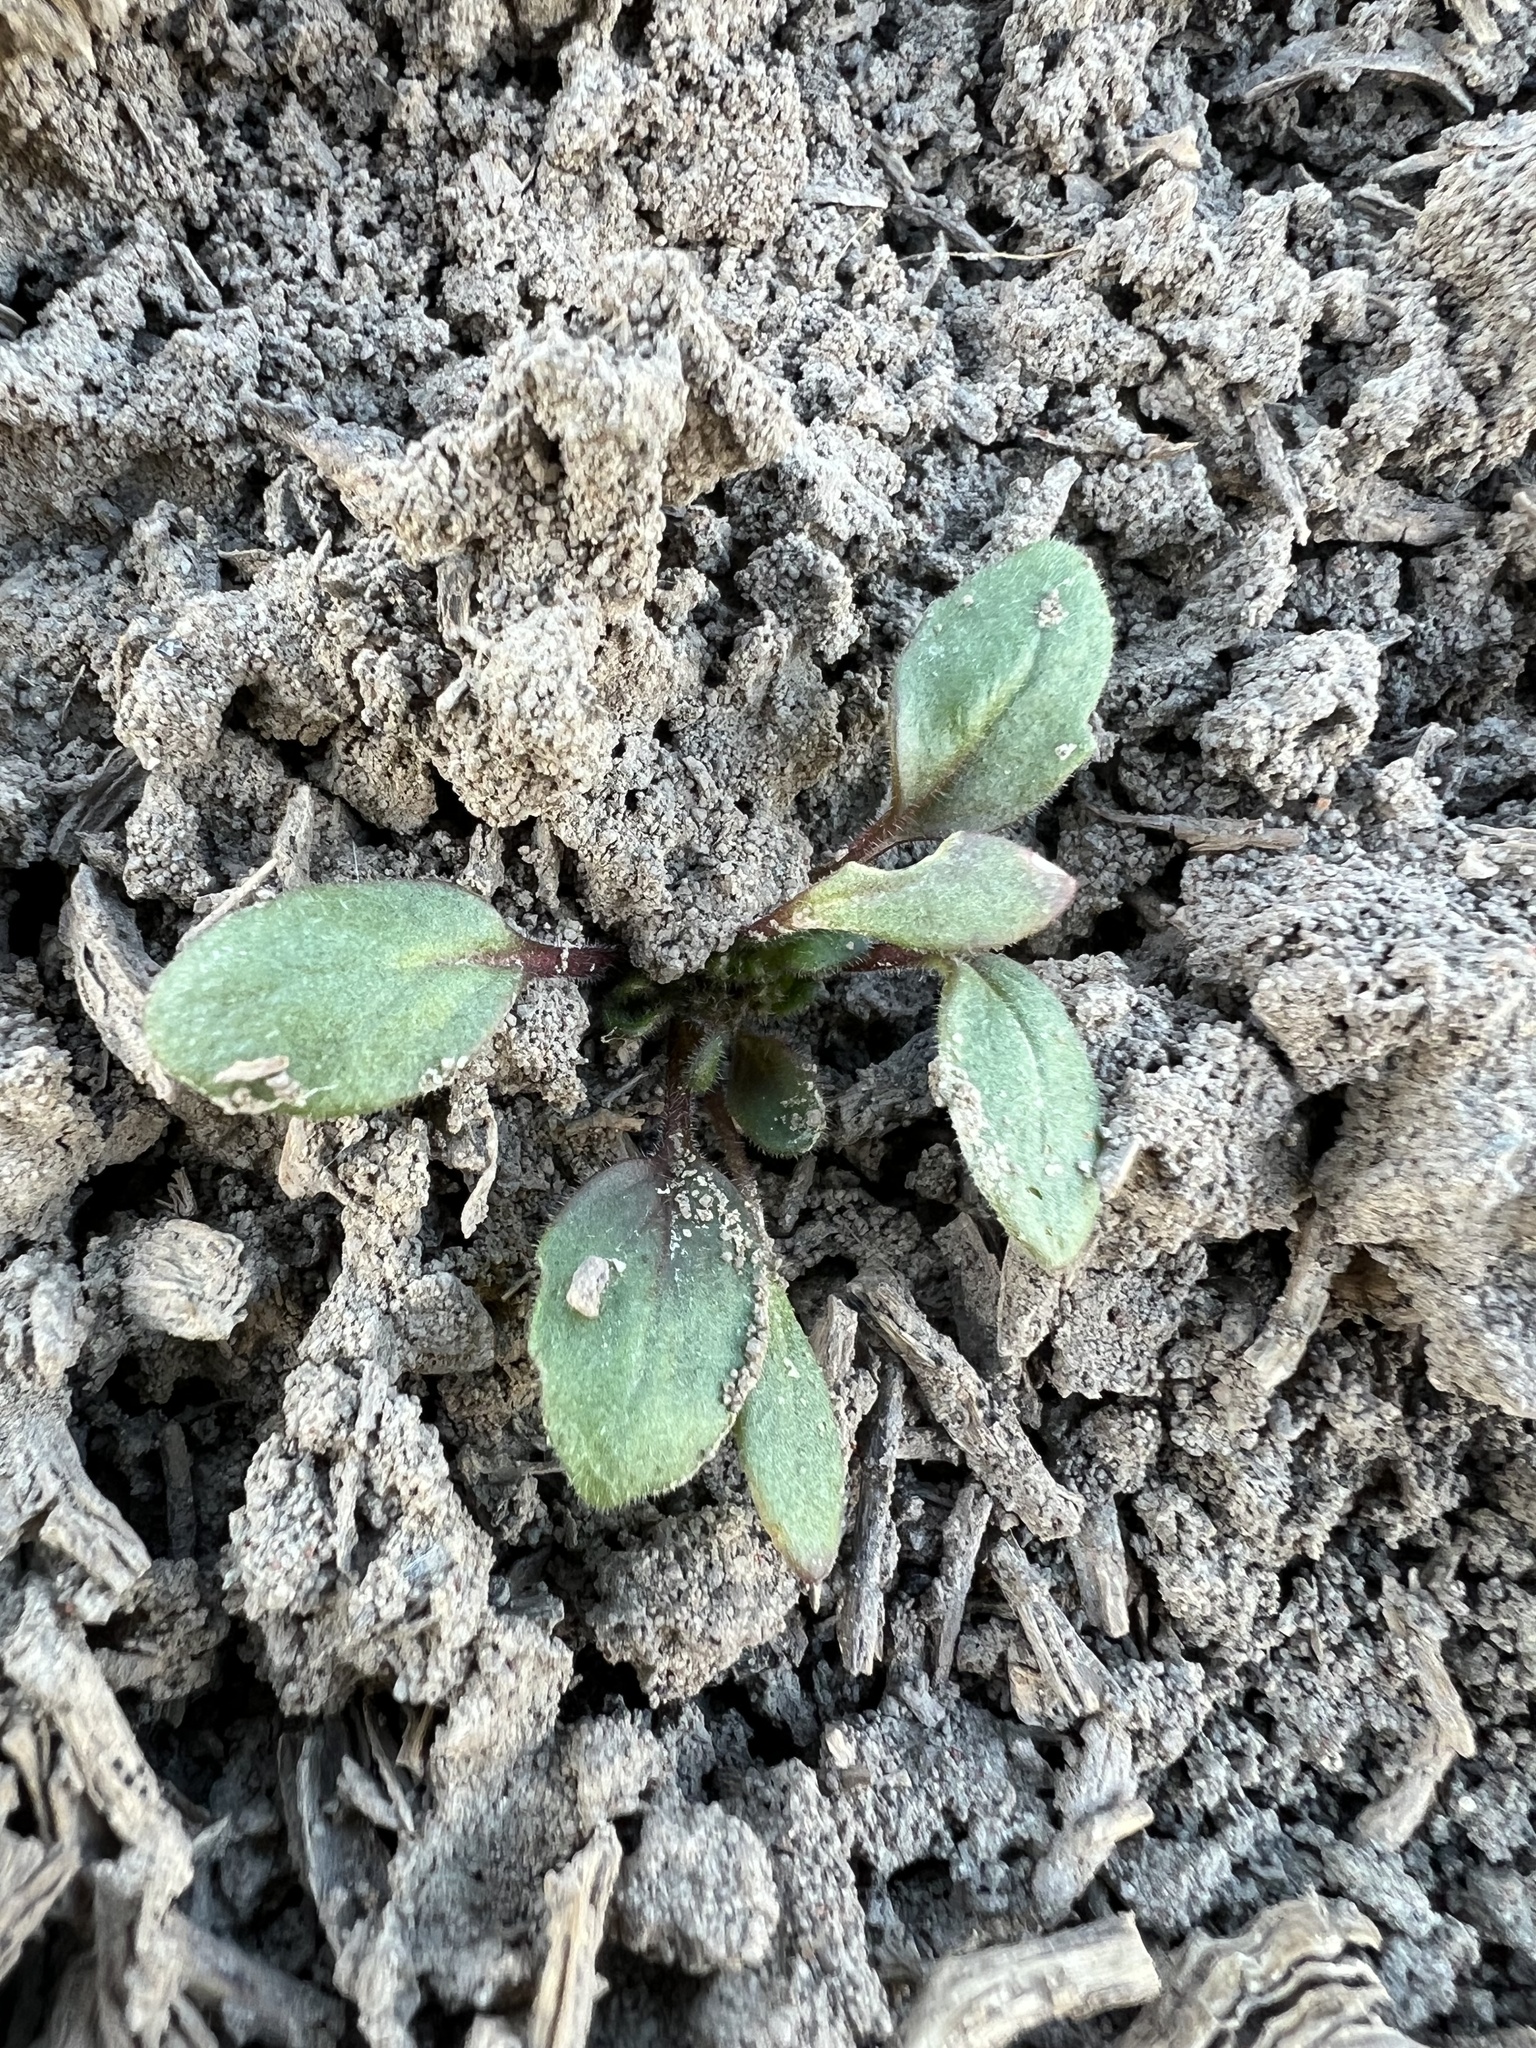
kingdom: Plantae
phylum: Tracheophyta
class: Magnoliopsida
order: Boraginales
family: Hydrophyllaceae
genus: Phacelia
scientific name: Phacelia scopulina
